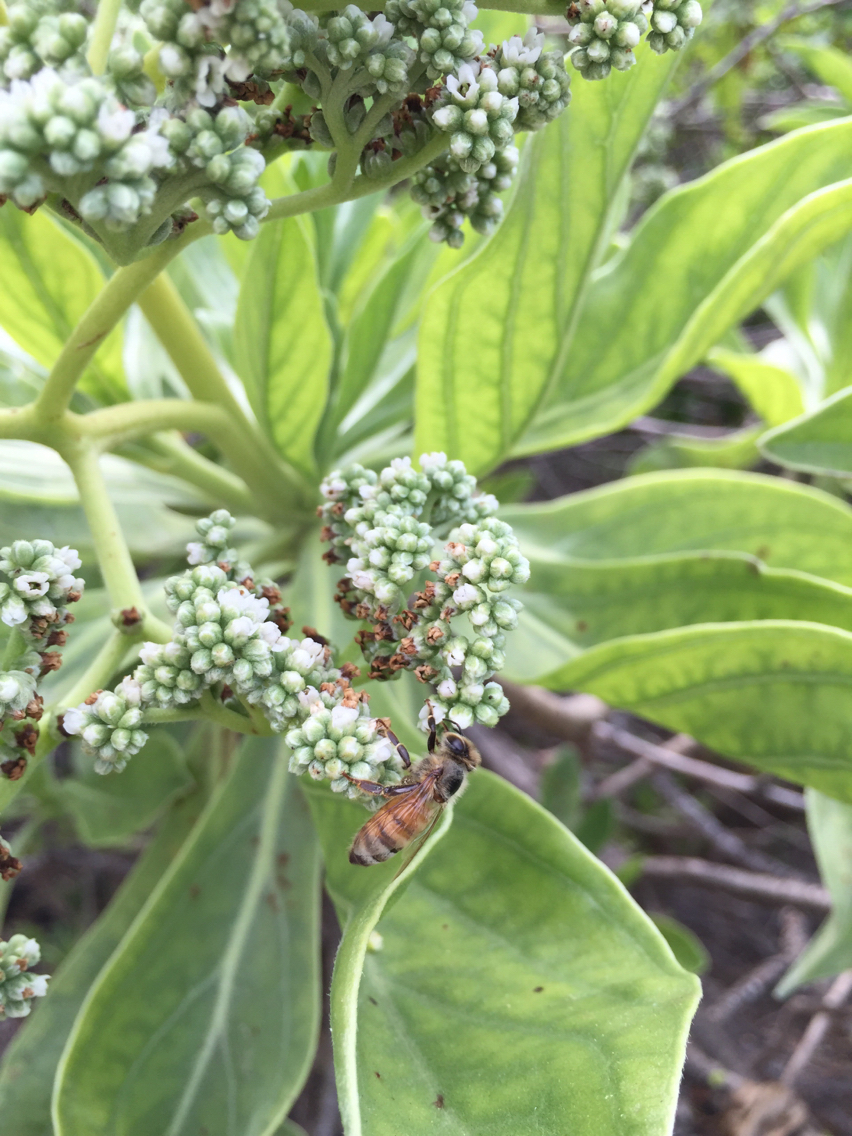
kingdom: Animalia
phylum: Arthropoda
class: Insecta
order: Hymenoptera
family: Apidae
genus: Apis
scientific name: Apis mellifera
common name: Honey bee
